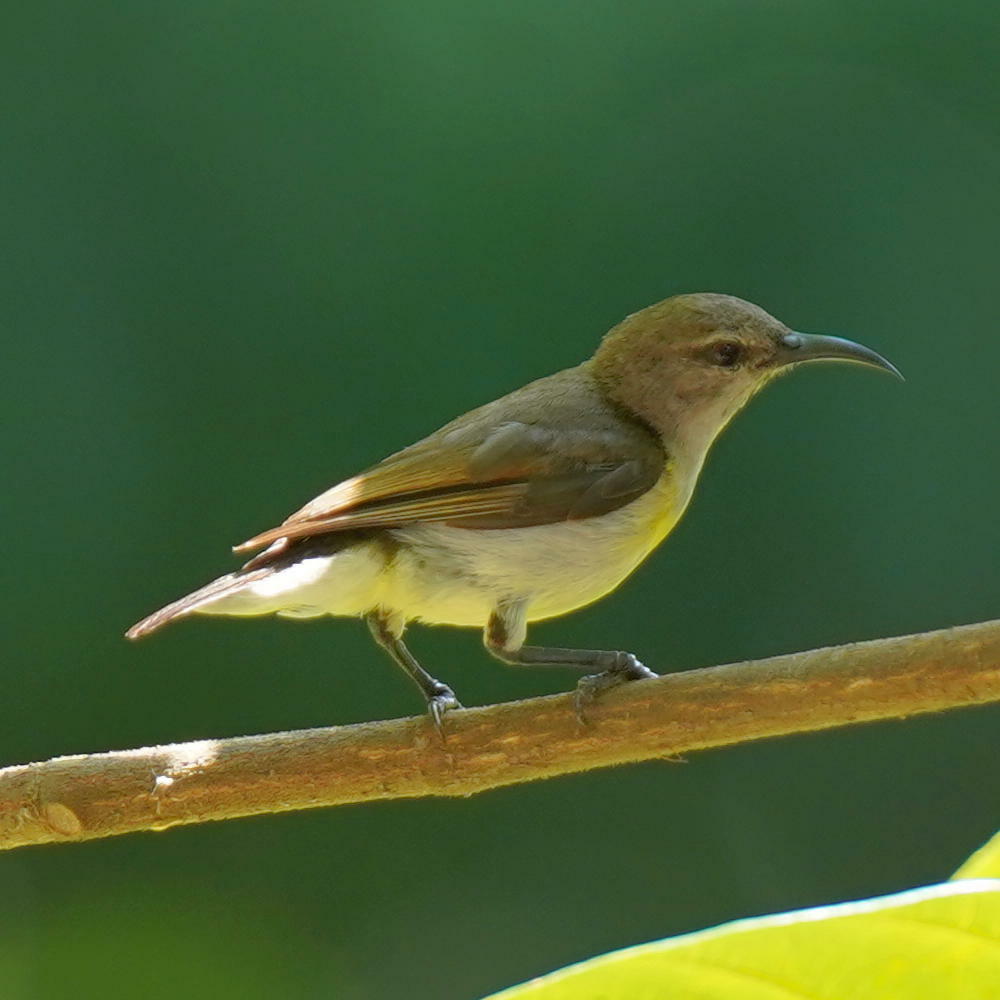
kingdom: Animalia
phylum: Chordata
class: Aves
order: Passeriformes
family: Nectariniidae
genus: Leptocoma
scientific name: Leptocoma zeylonica
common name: Purple-rumped sunbird
